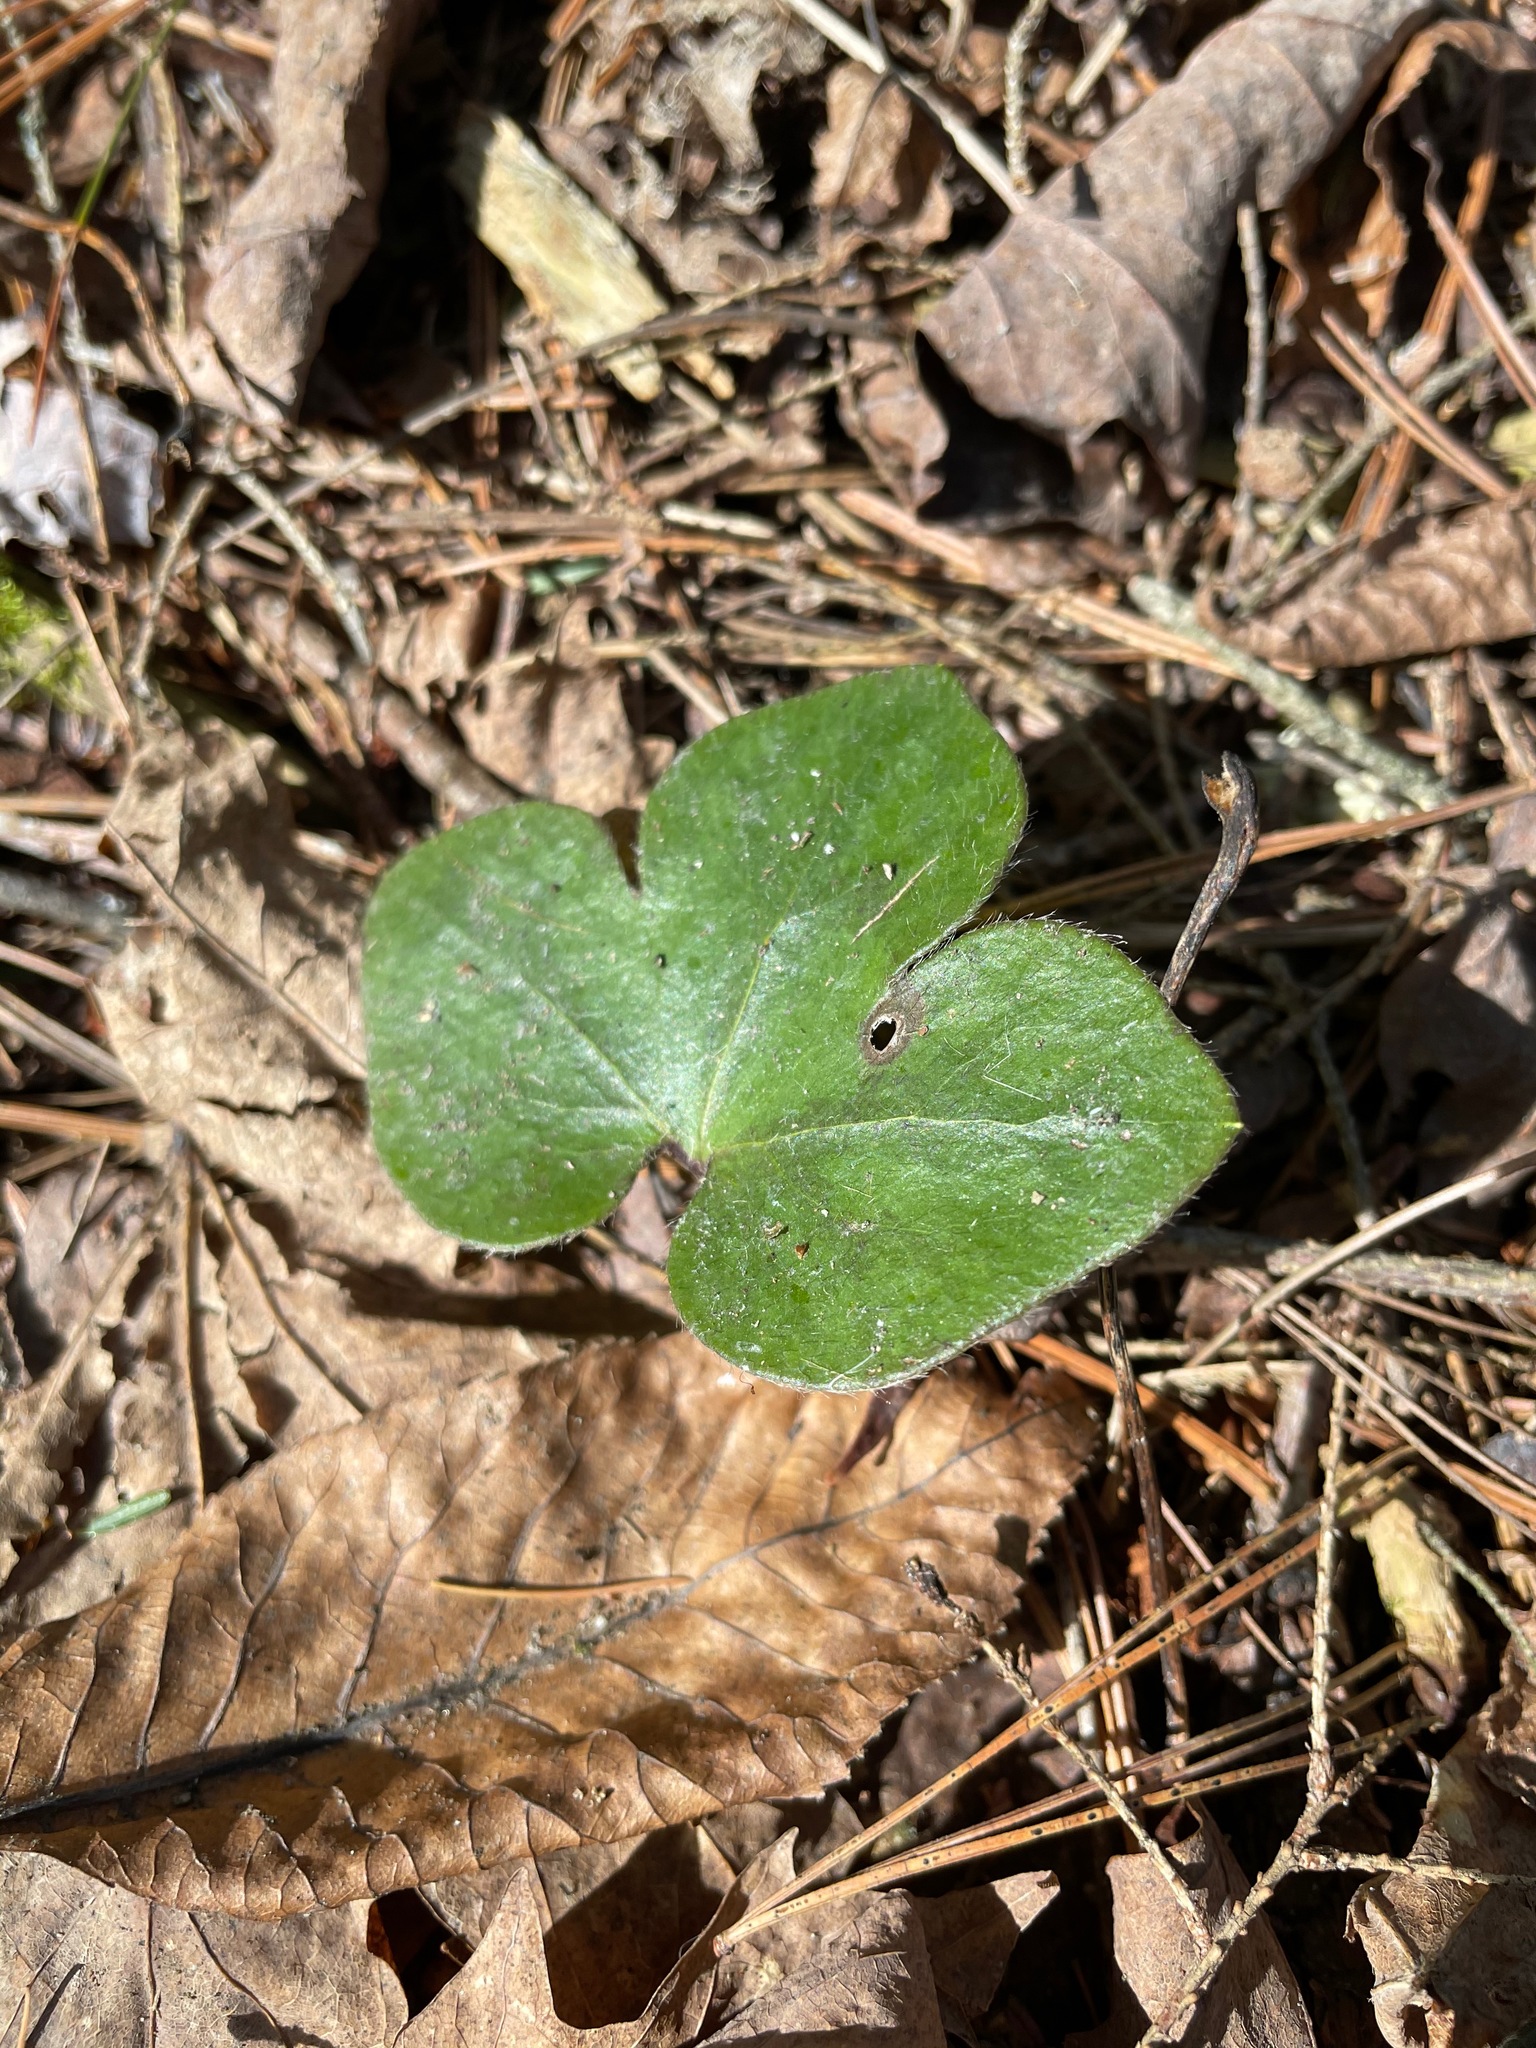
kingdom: Plantae
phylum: Tracheophyta
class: Magnoliopsida
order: Ranunculales
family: Ranunculaceae
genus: Hepatica
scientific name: Hepatica americana
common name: American hepatica
